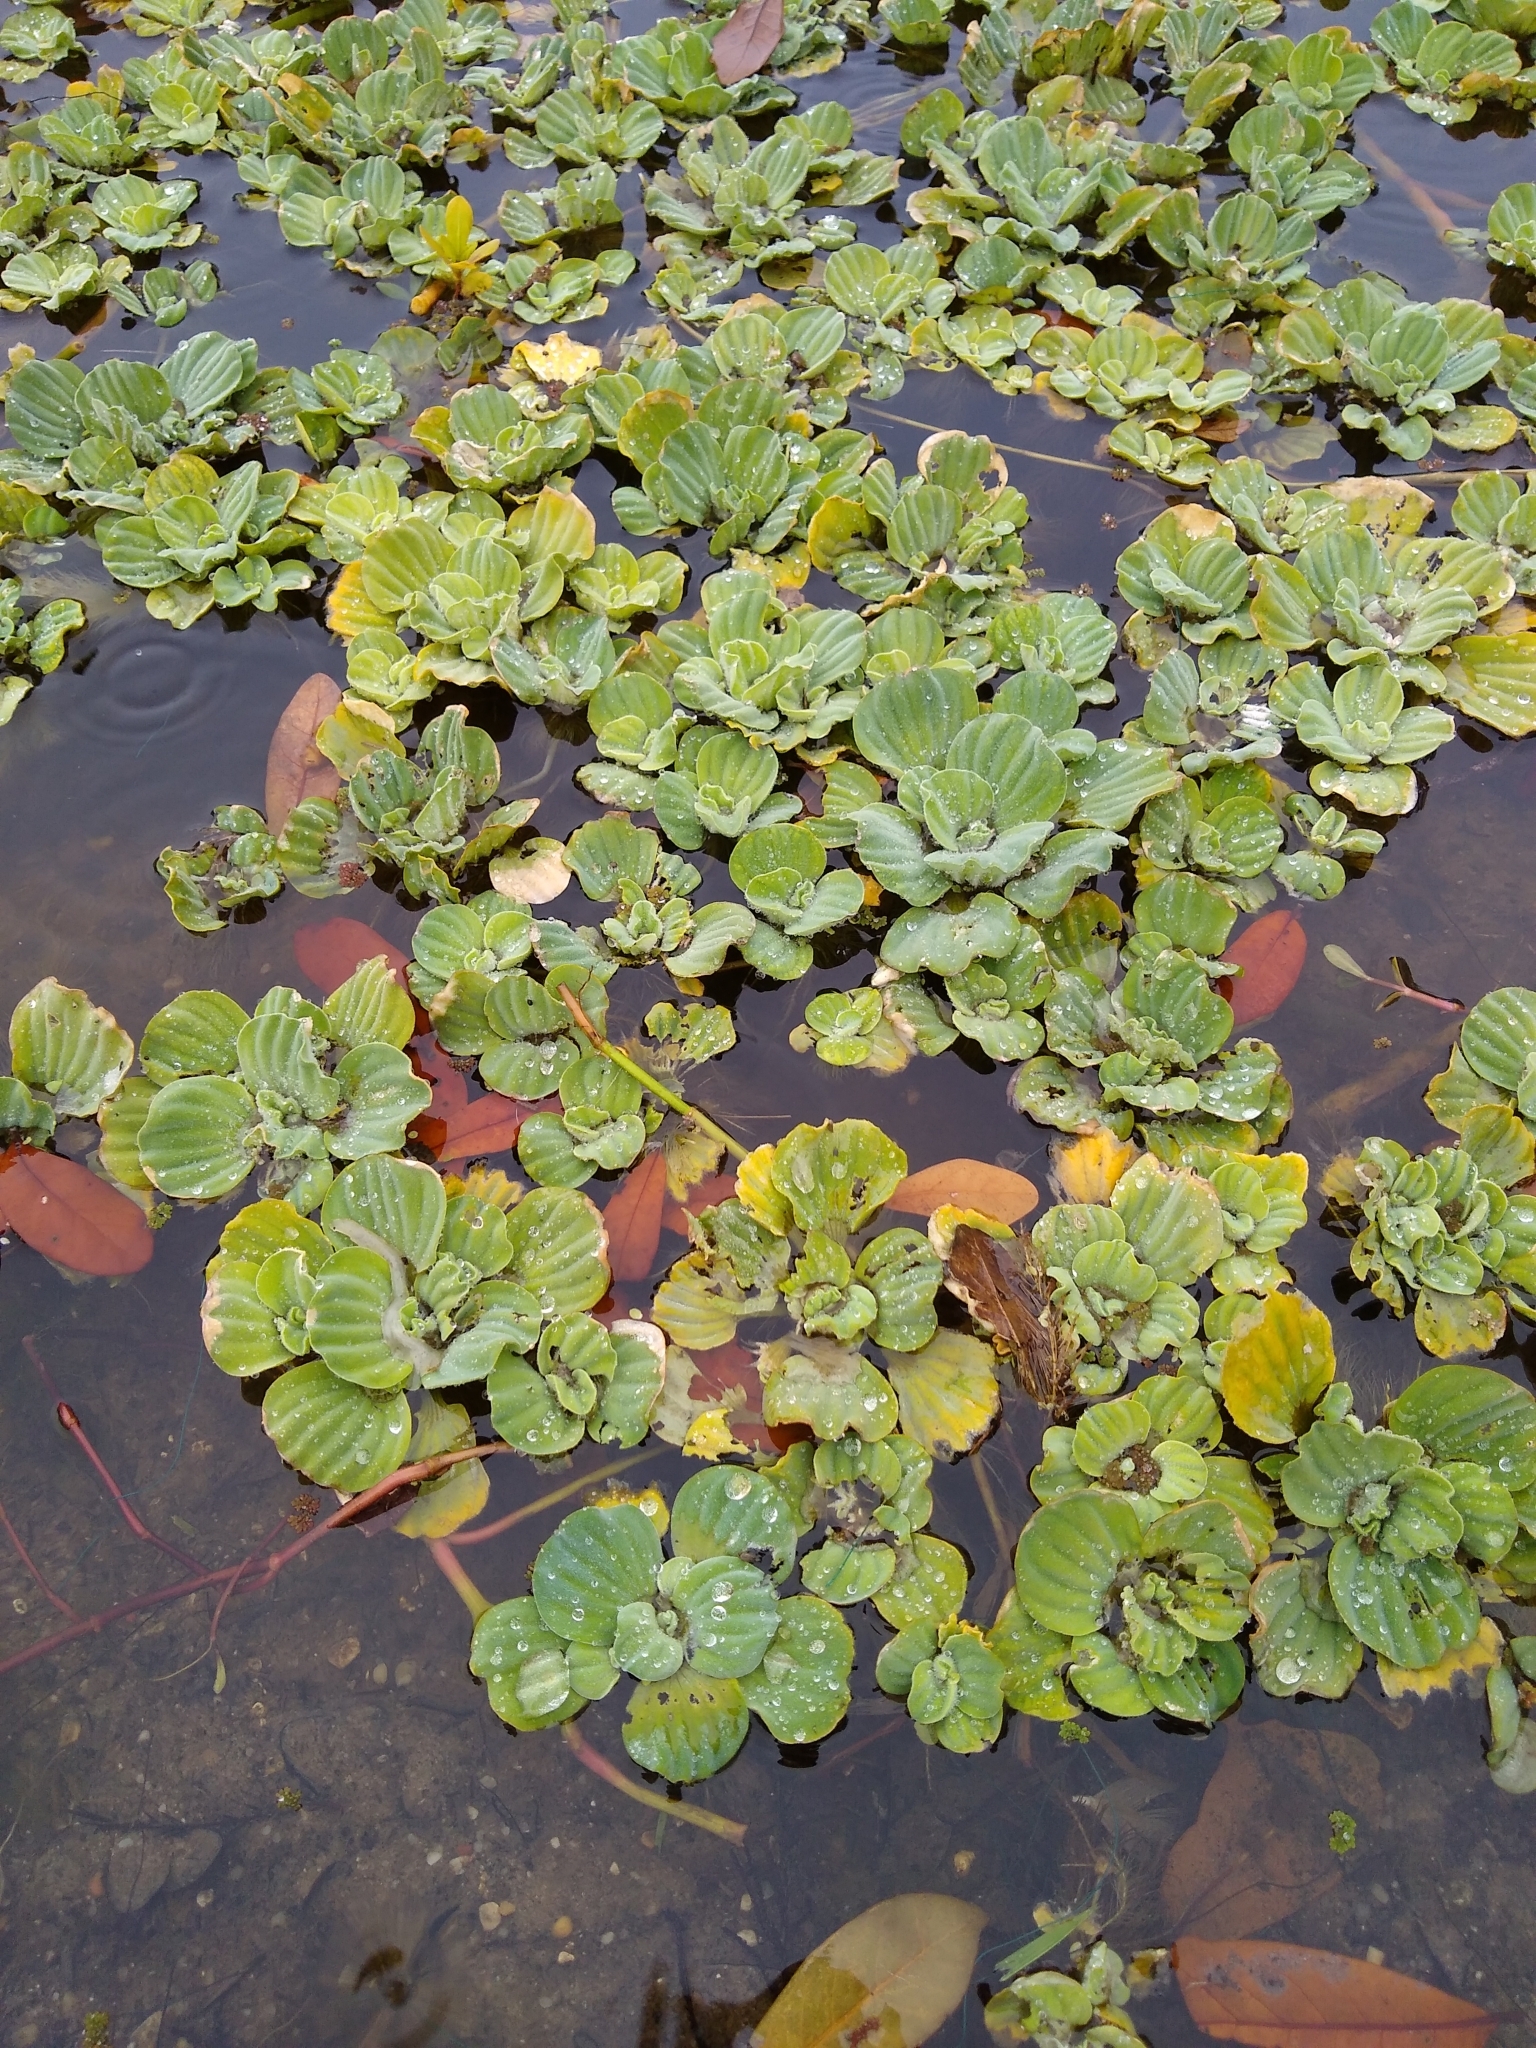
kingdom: Plantae
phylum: Tracheophyta
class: Liliopsida
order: Alismatales
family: Araceae
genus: Pistia
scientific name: Pistia stratiotes
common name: Water lettuce
